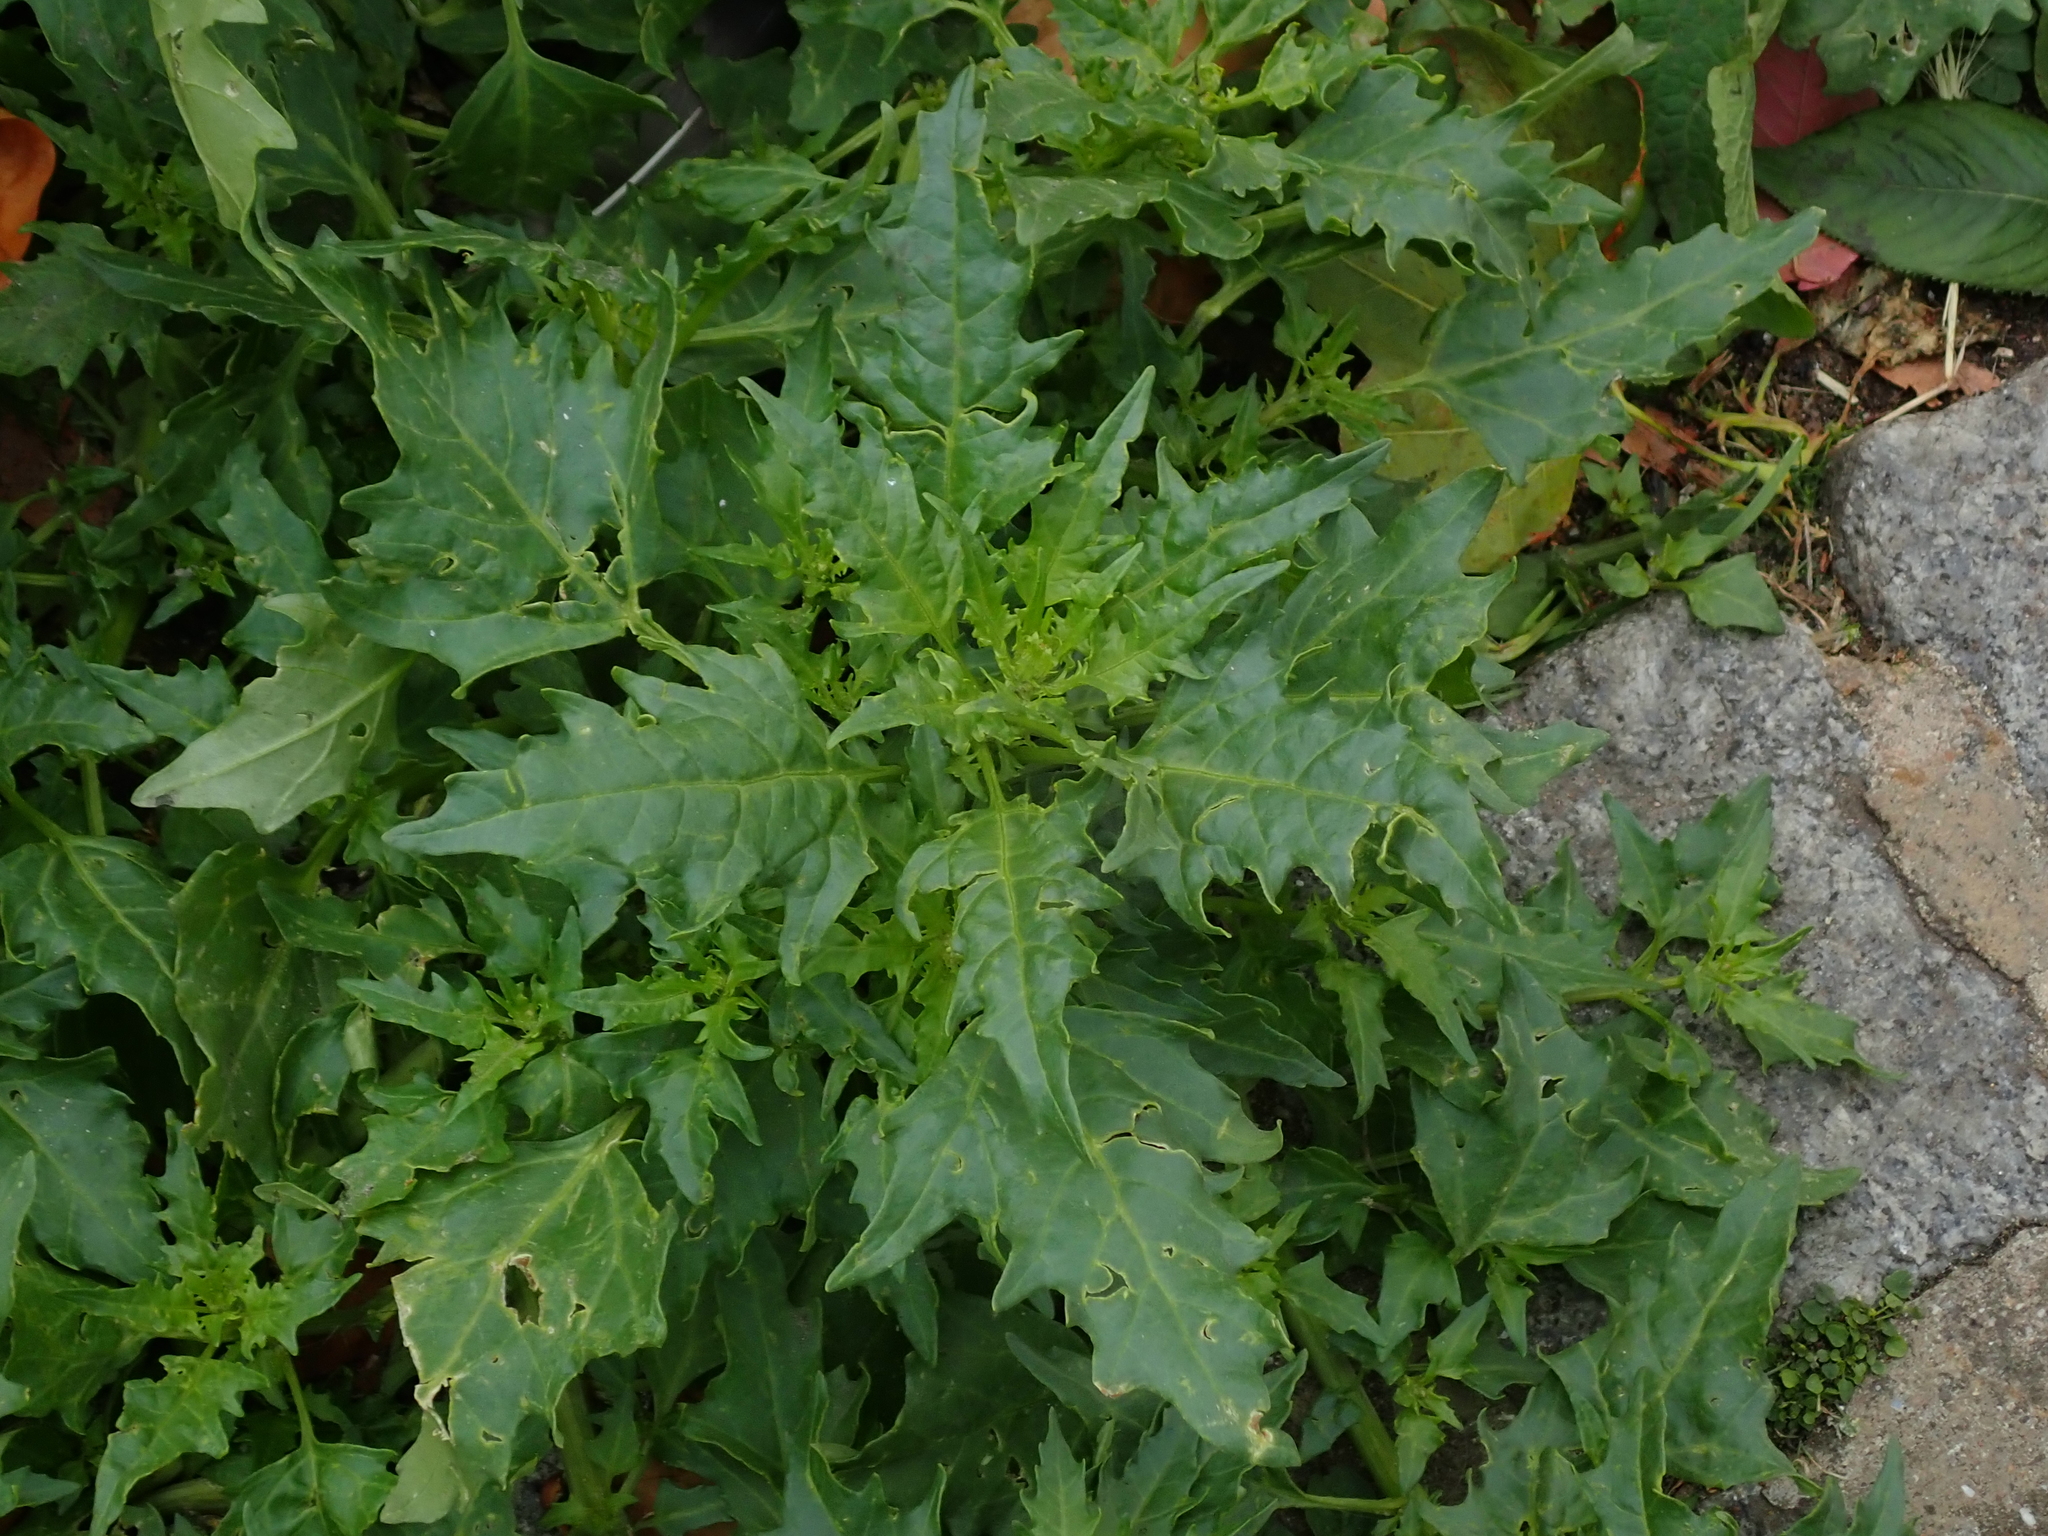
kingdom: Plantae
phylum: Tracheophyta
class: Magnoliopsida
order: Caryophyllales
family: Amaranthaceae
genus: Oxybasis
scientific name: Oxybasis rubra
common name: Red goosefoot
